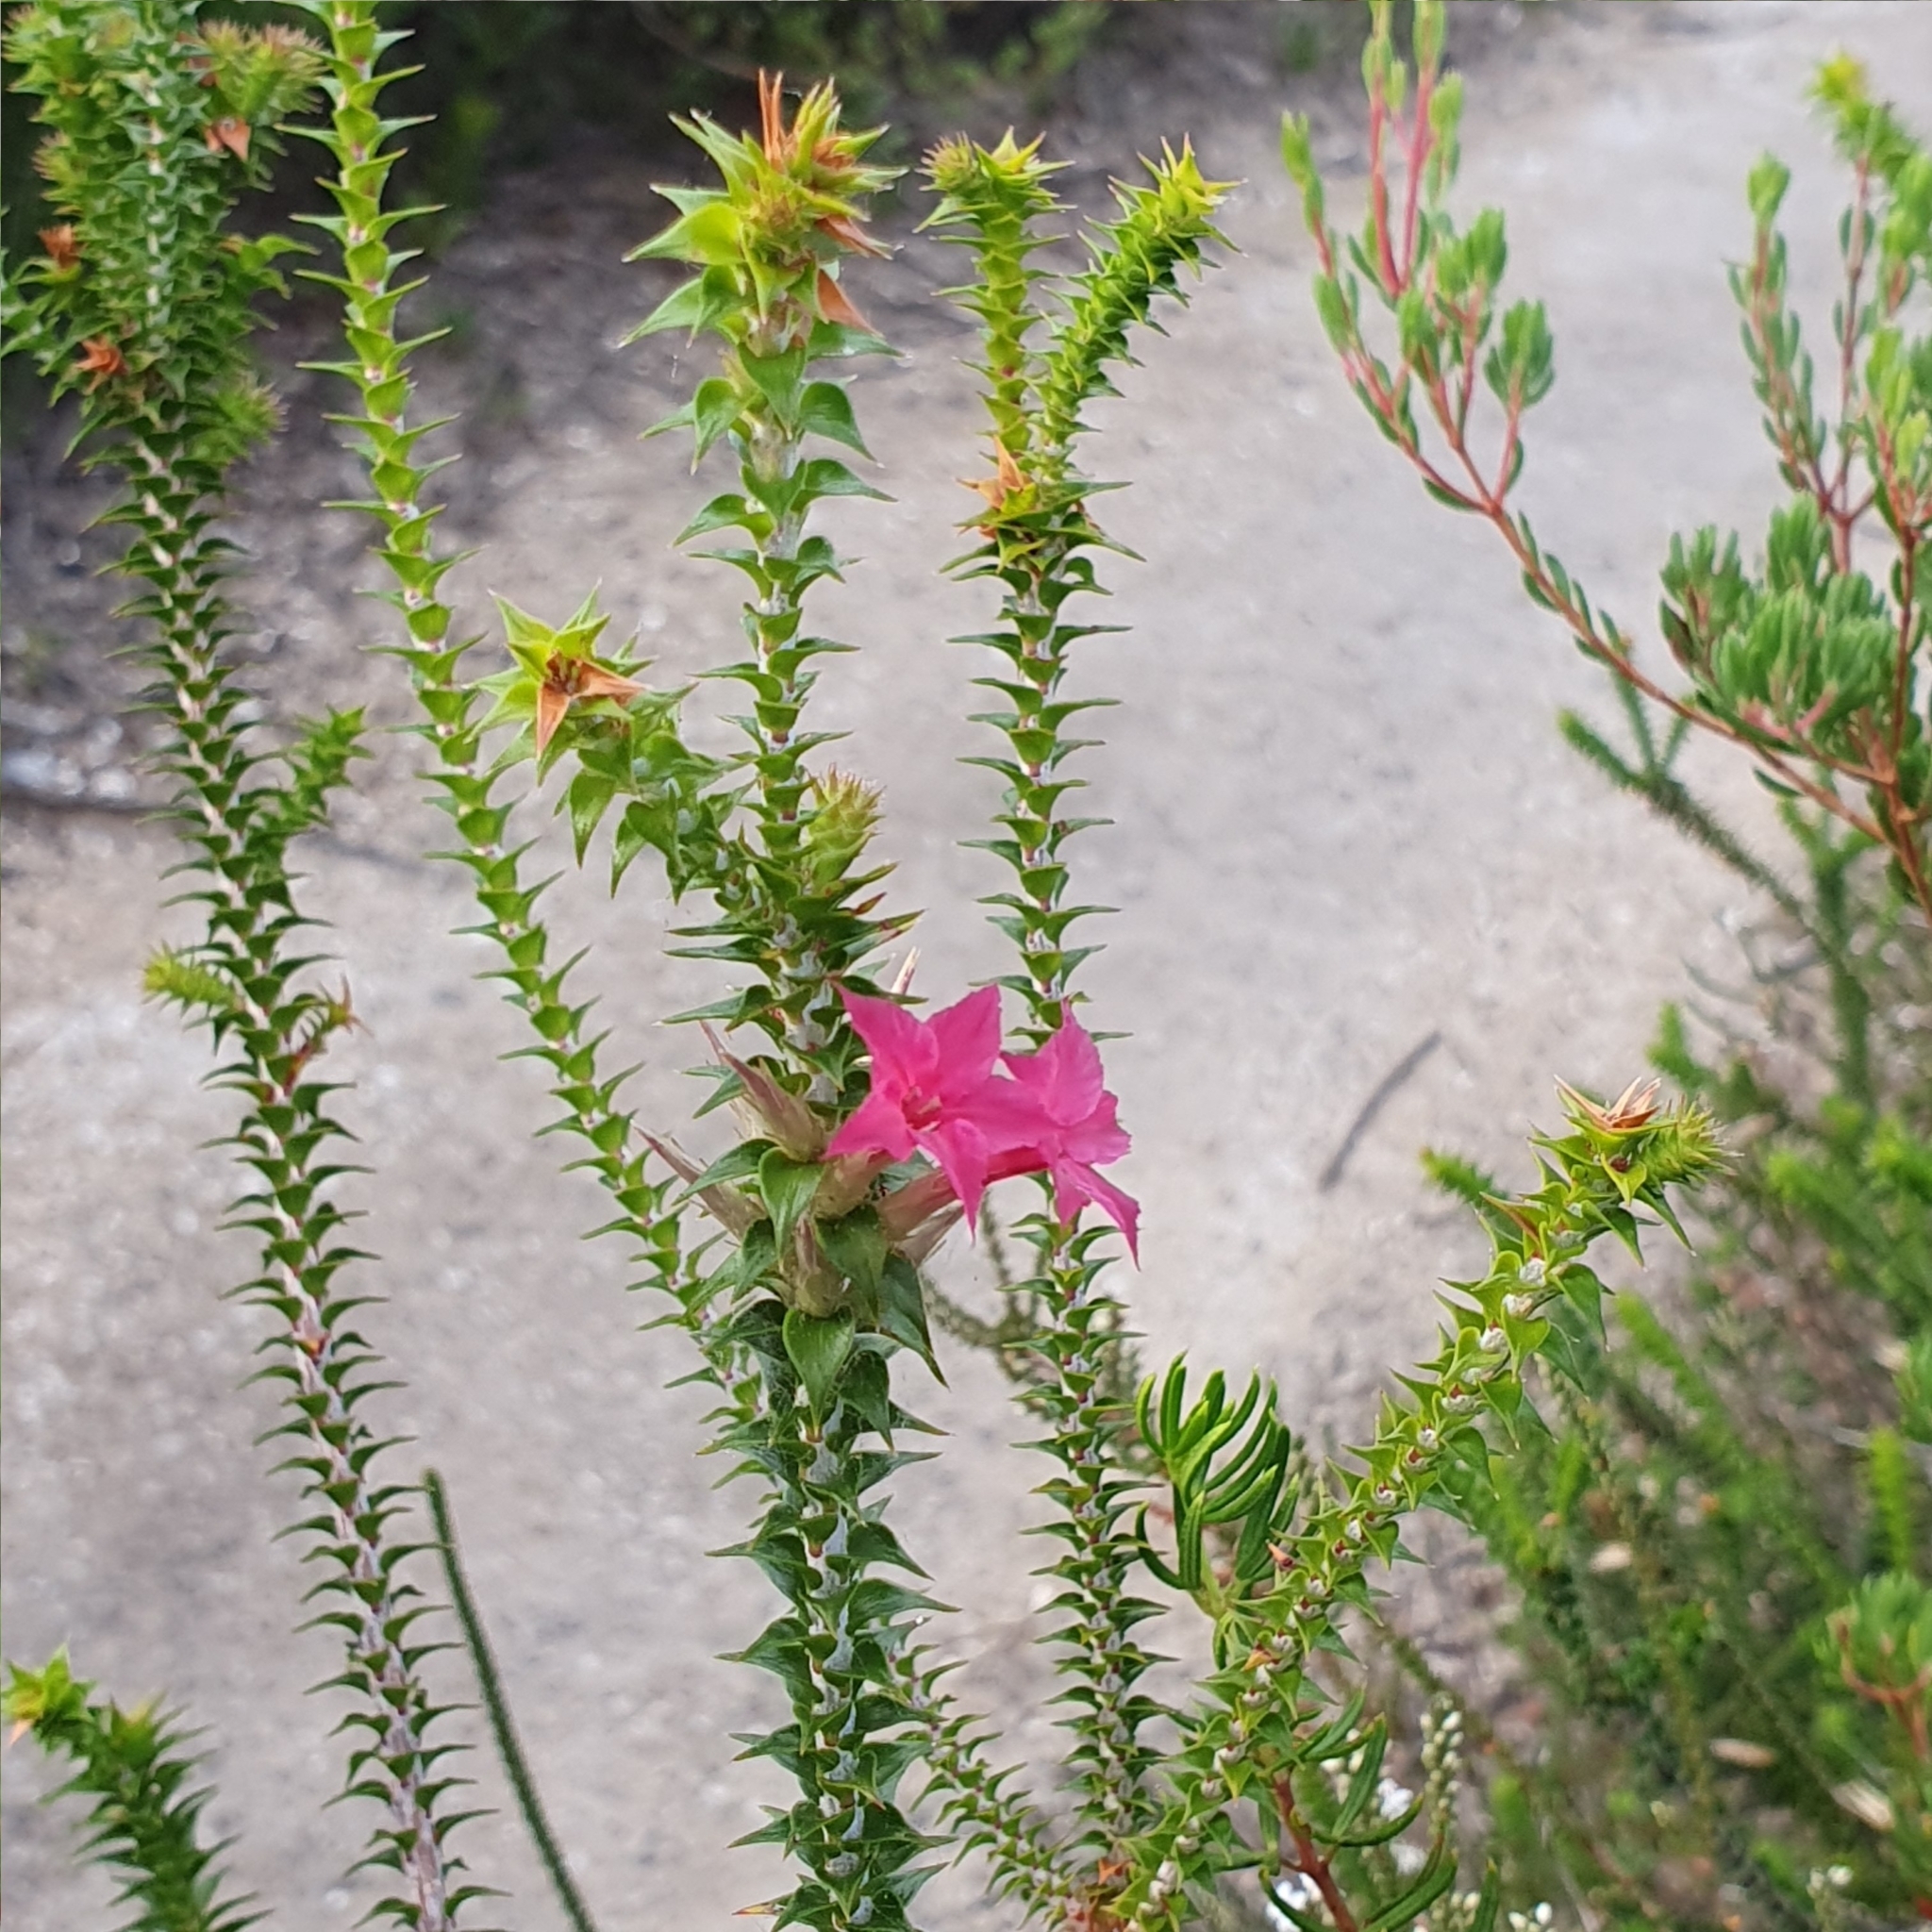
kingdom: Plantae
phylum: Tracheophyta
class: Magnoliopsida
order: Ericales
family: Ericaceae
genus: Woollsia
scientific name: Woollsia pungens
